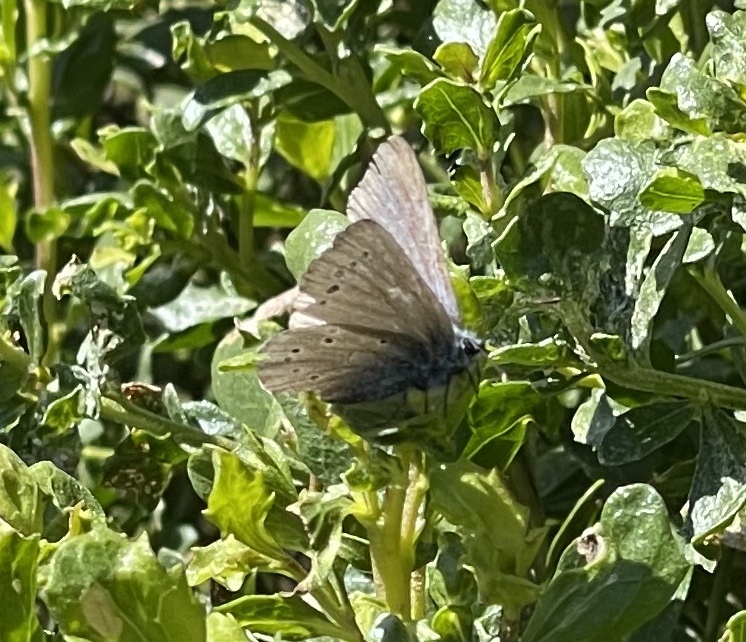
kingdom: Animalia
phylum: Arthropoda
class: Insecta
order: Lepidoptera
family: Lycaenidae
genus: Glaucopsyche
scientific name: Glaucopsyche lygdamus
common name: Silvery blue
